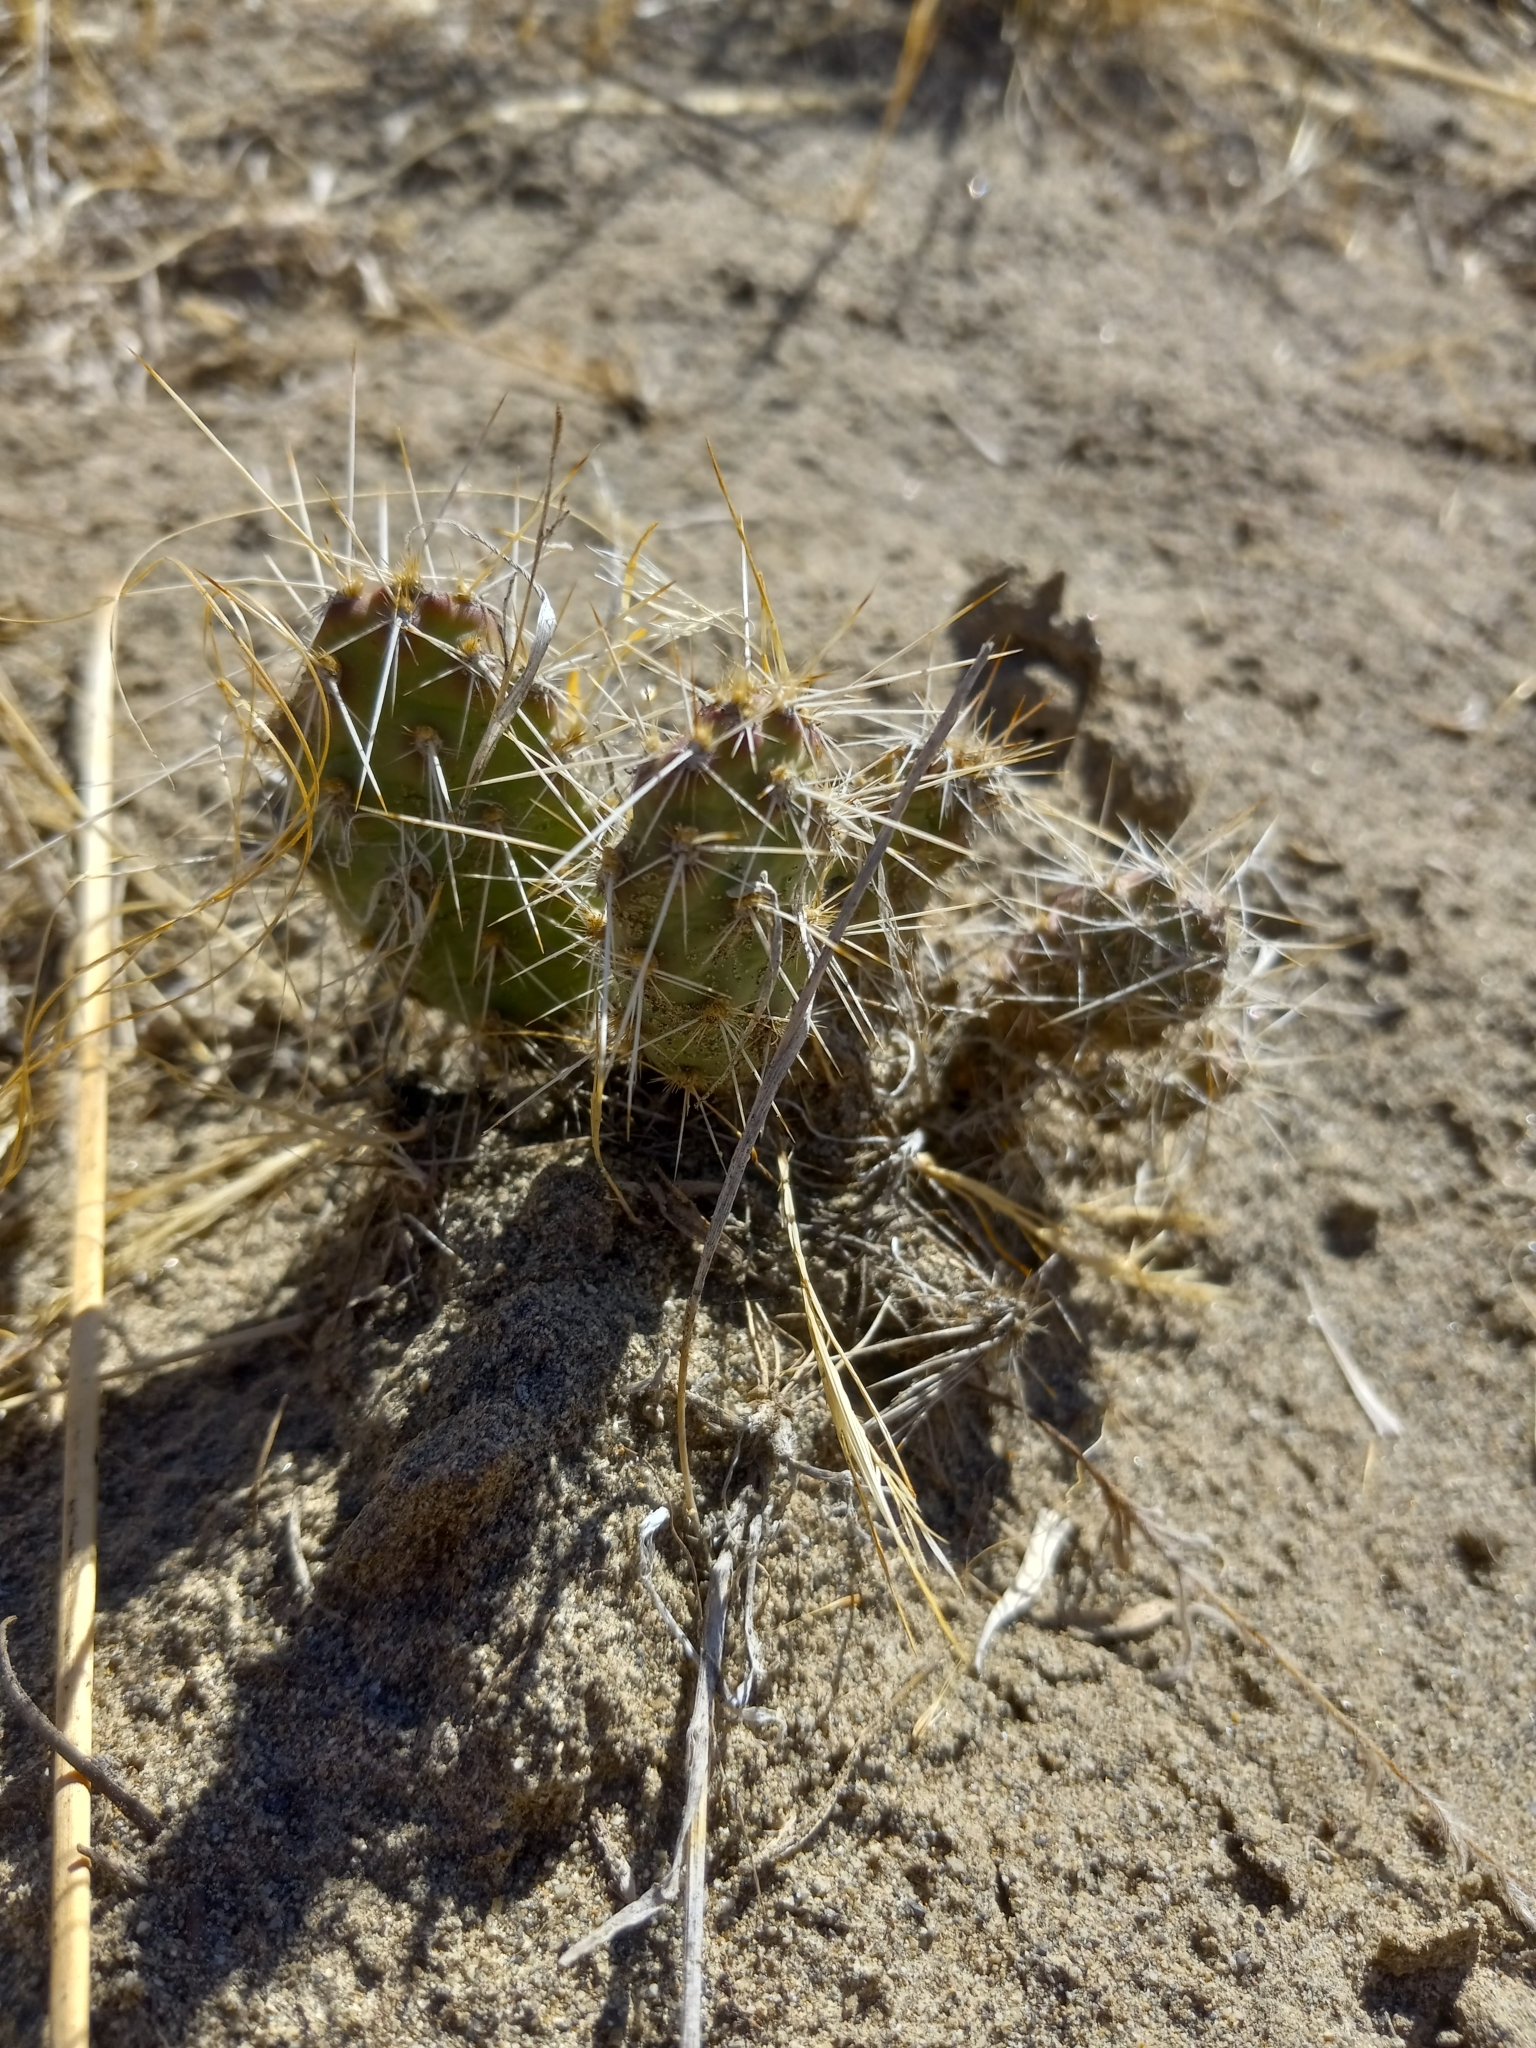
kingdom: Plantae
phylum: Tracheophyta
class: Magnoliopsida
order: Caryophyllales
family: Cactaceae
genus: Opuntia
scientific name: Opuntia columbiana
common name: Columbia prickly-pear
